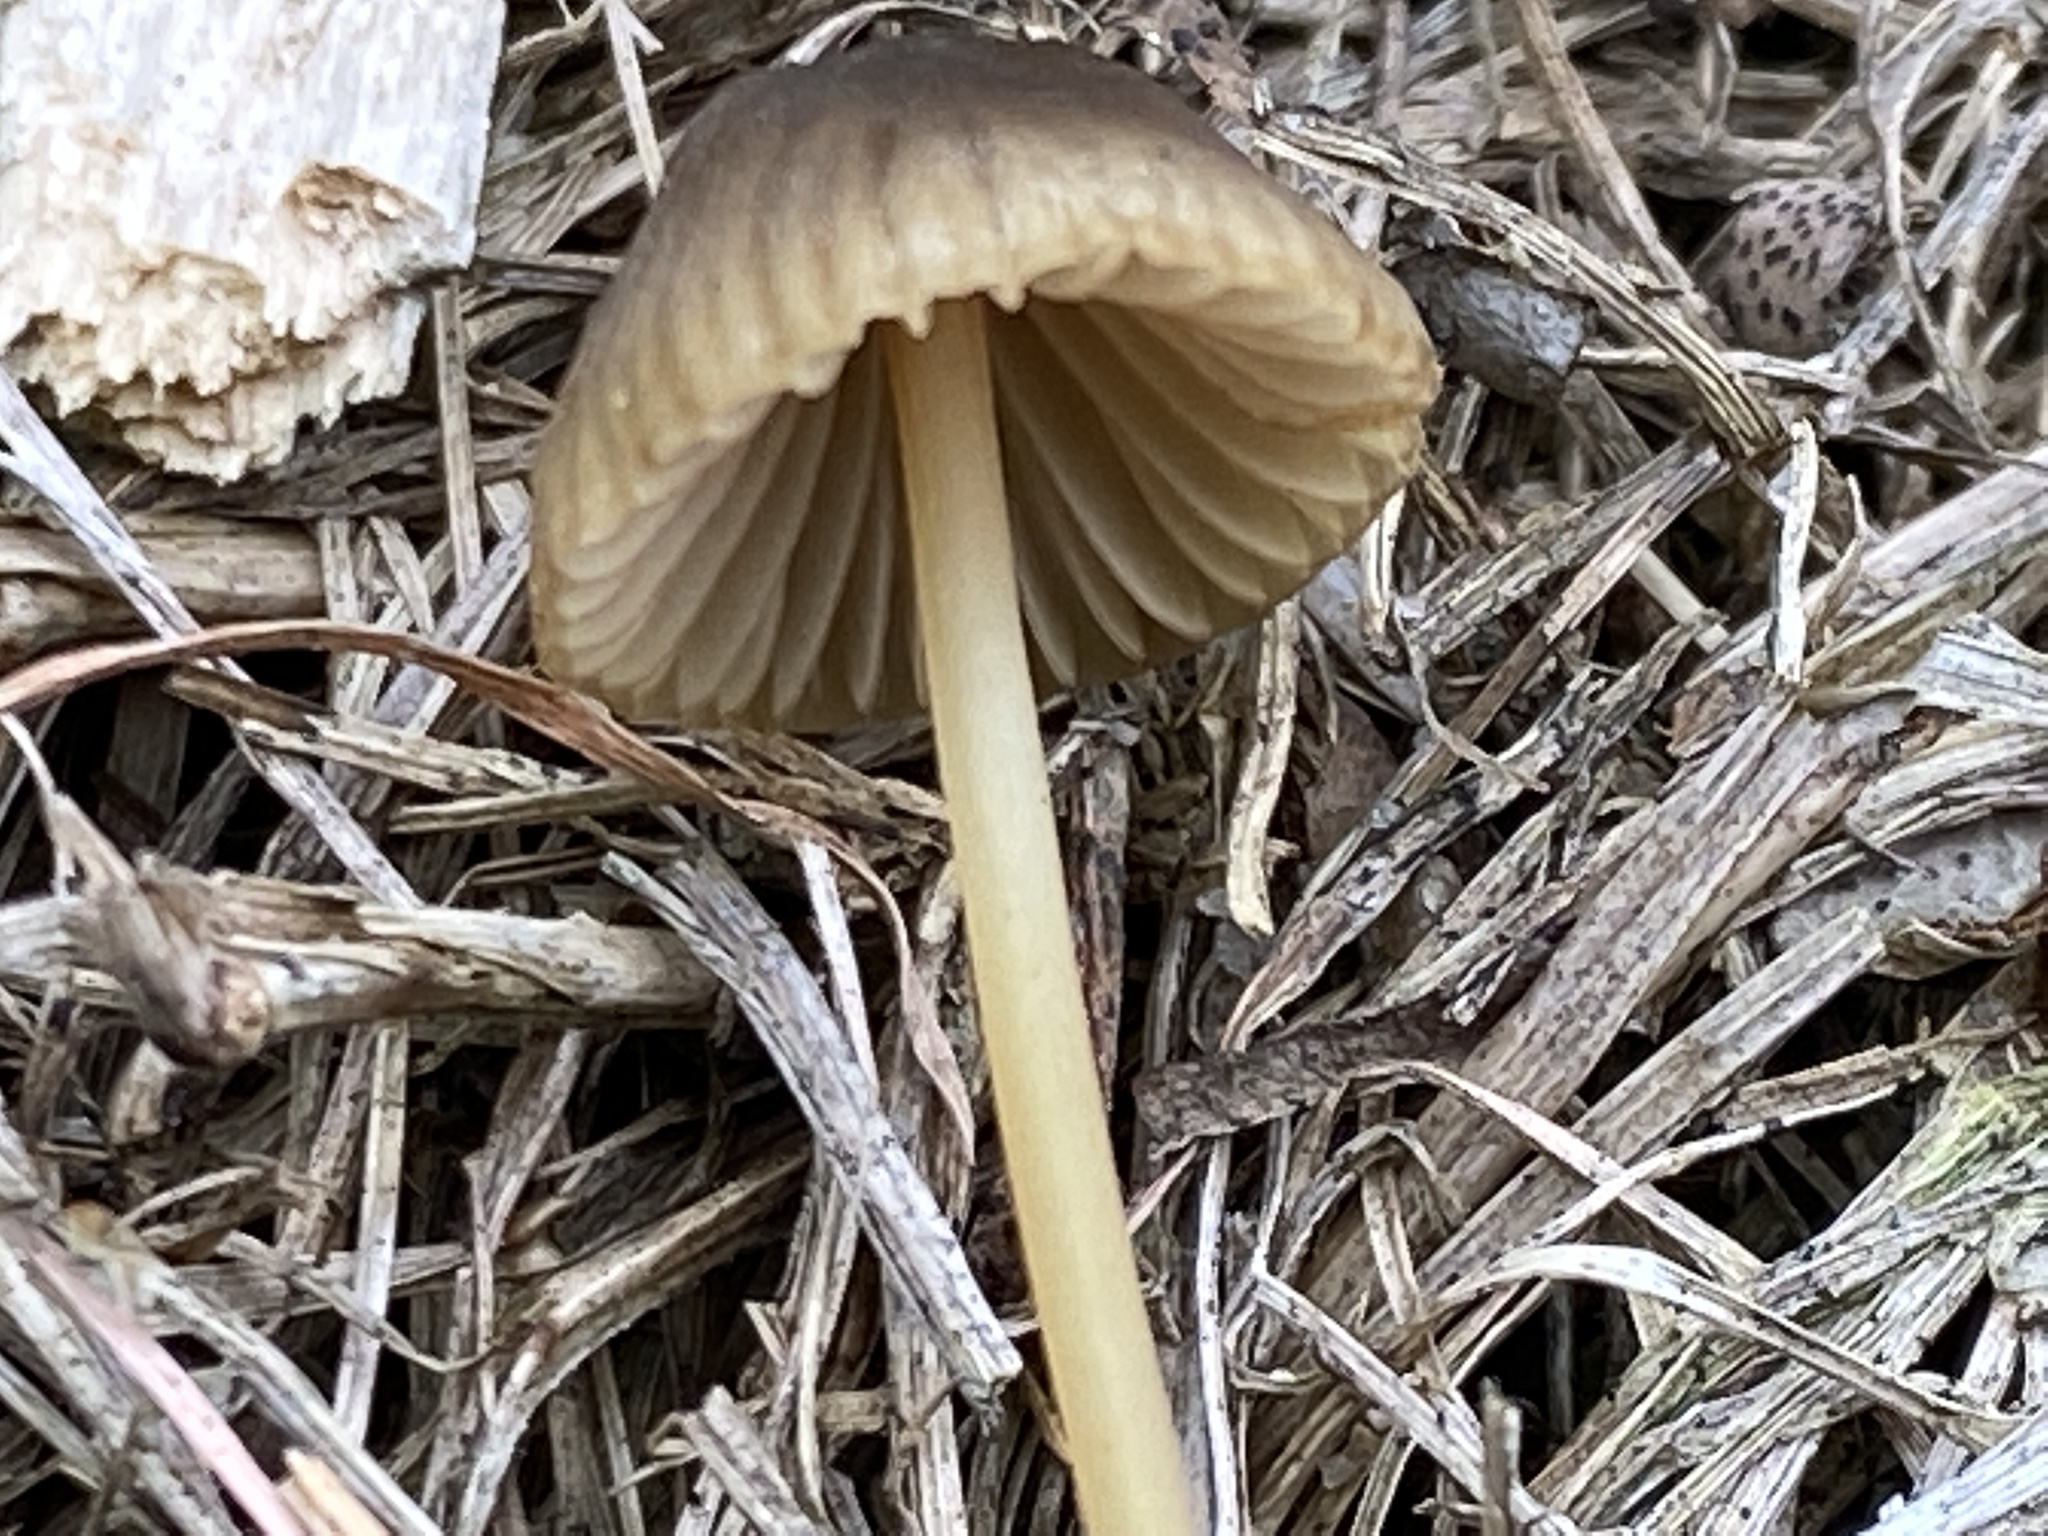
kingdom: Fungi
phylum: Basidiomycota
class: Agaricomycetes
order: Agaricales
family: Mycenaceae
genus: Mycena
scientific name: Mycena olivaceomarginata
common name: Brownedge bonnet
